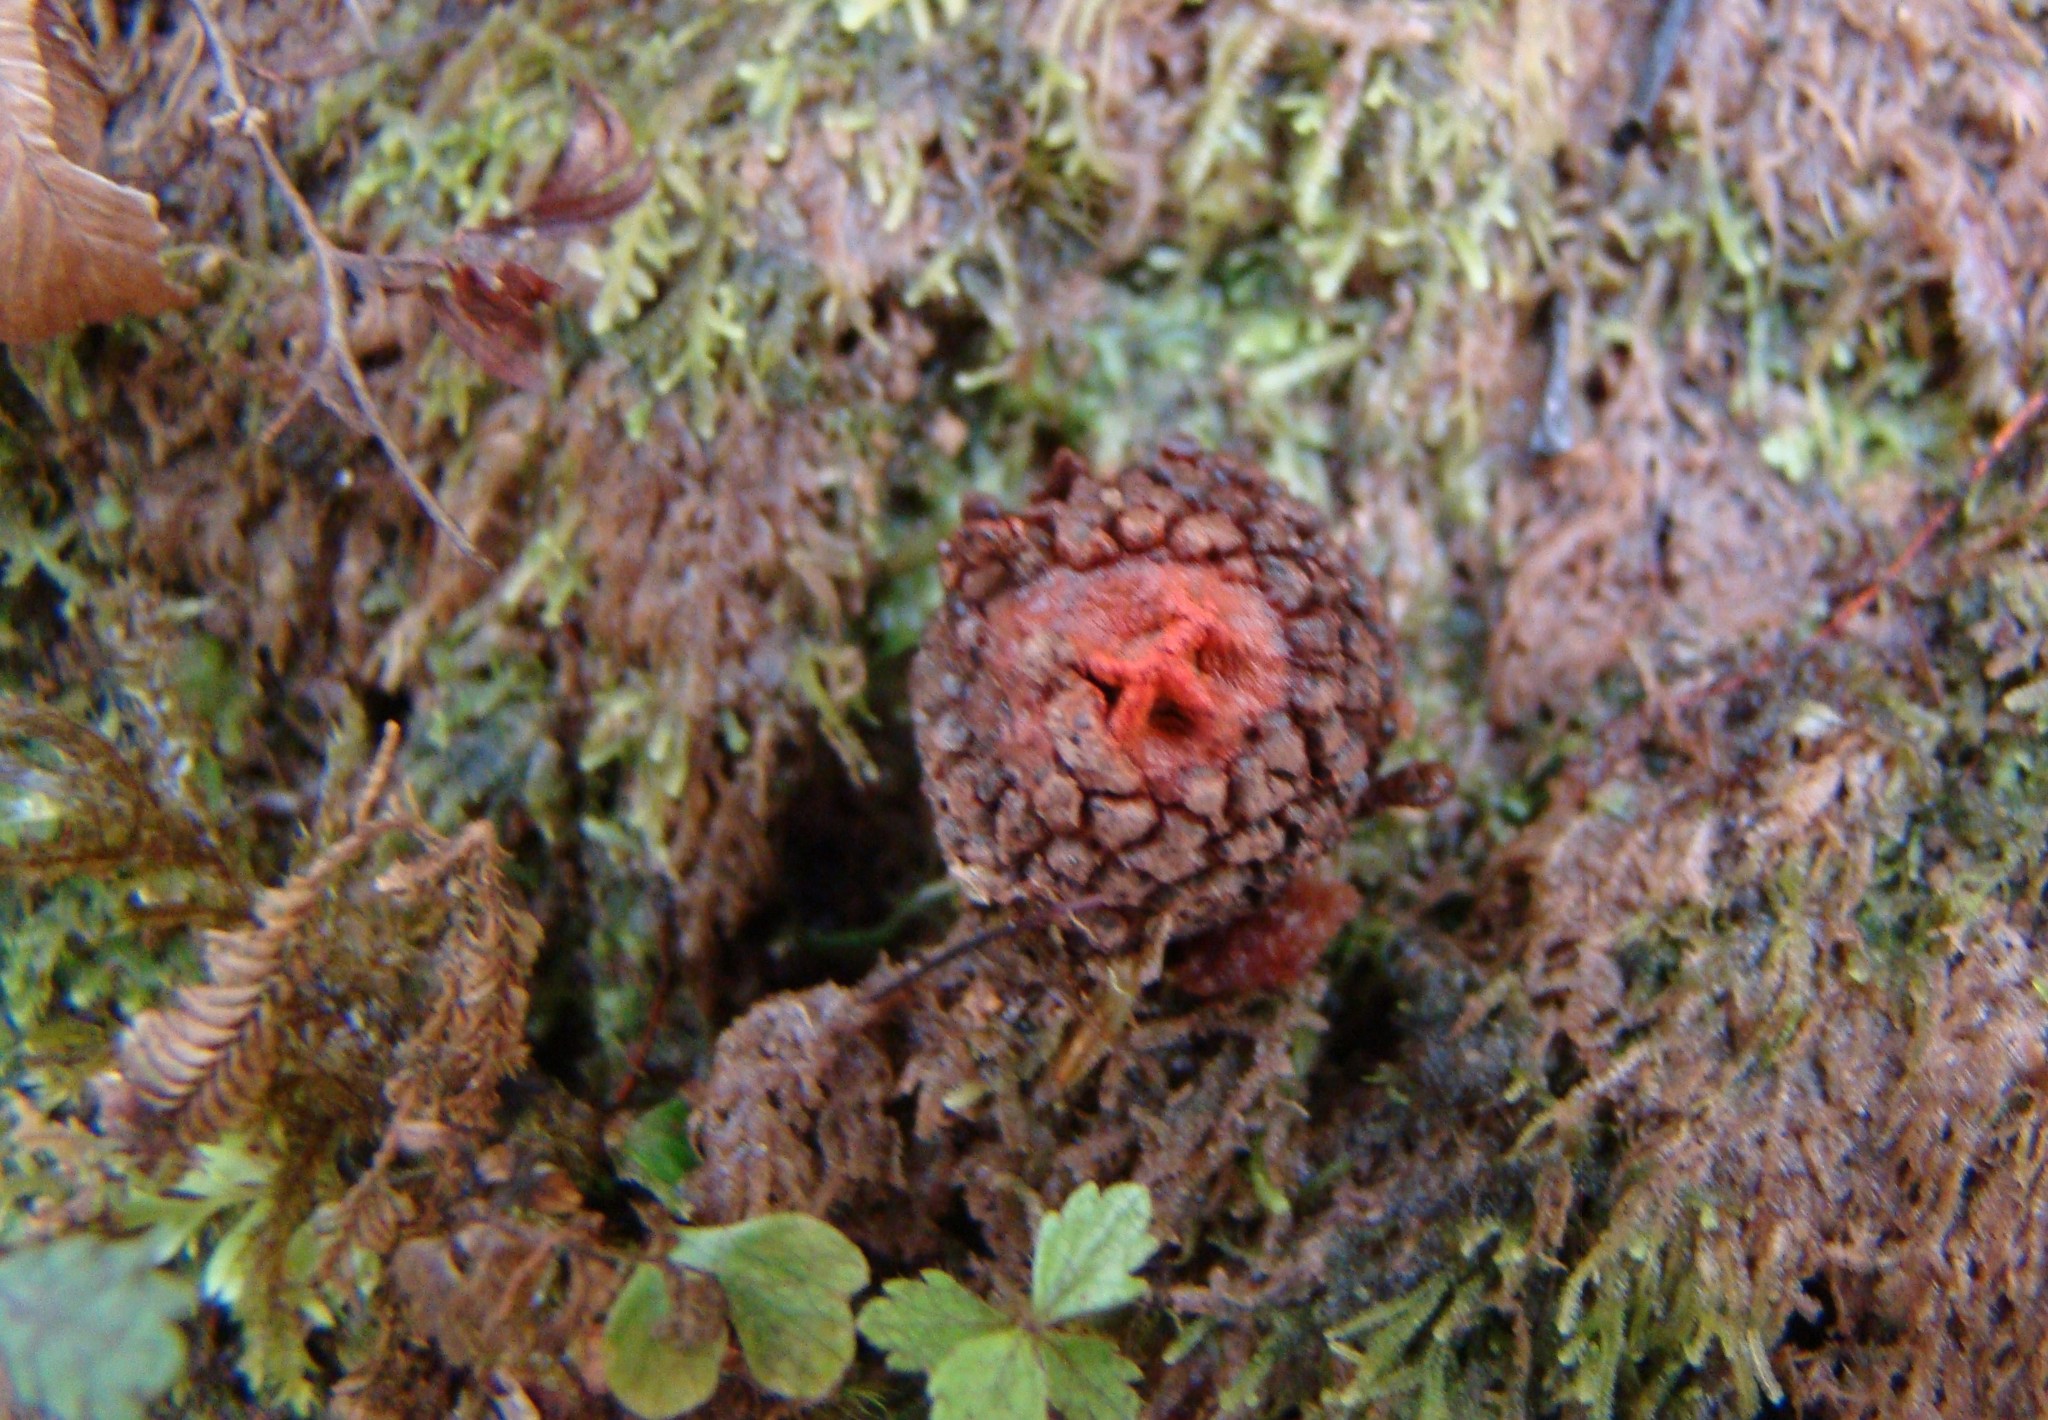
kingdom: Fungi
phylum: Basidiomycota
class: Agaricomycetes
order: Boletales
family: Calostomataceae
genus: Calostoma
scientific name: Calostoma rodwayi
